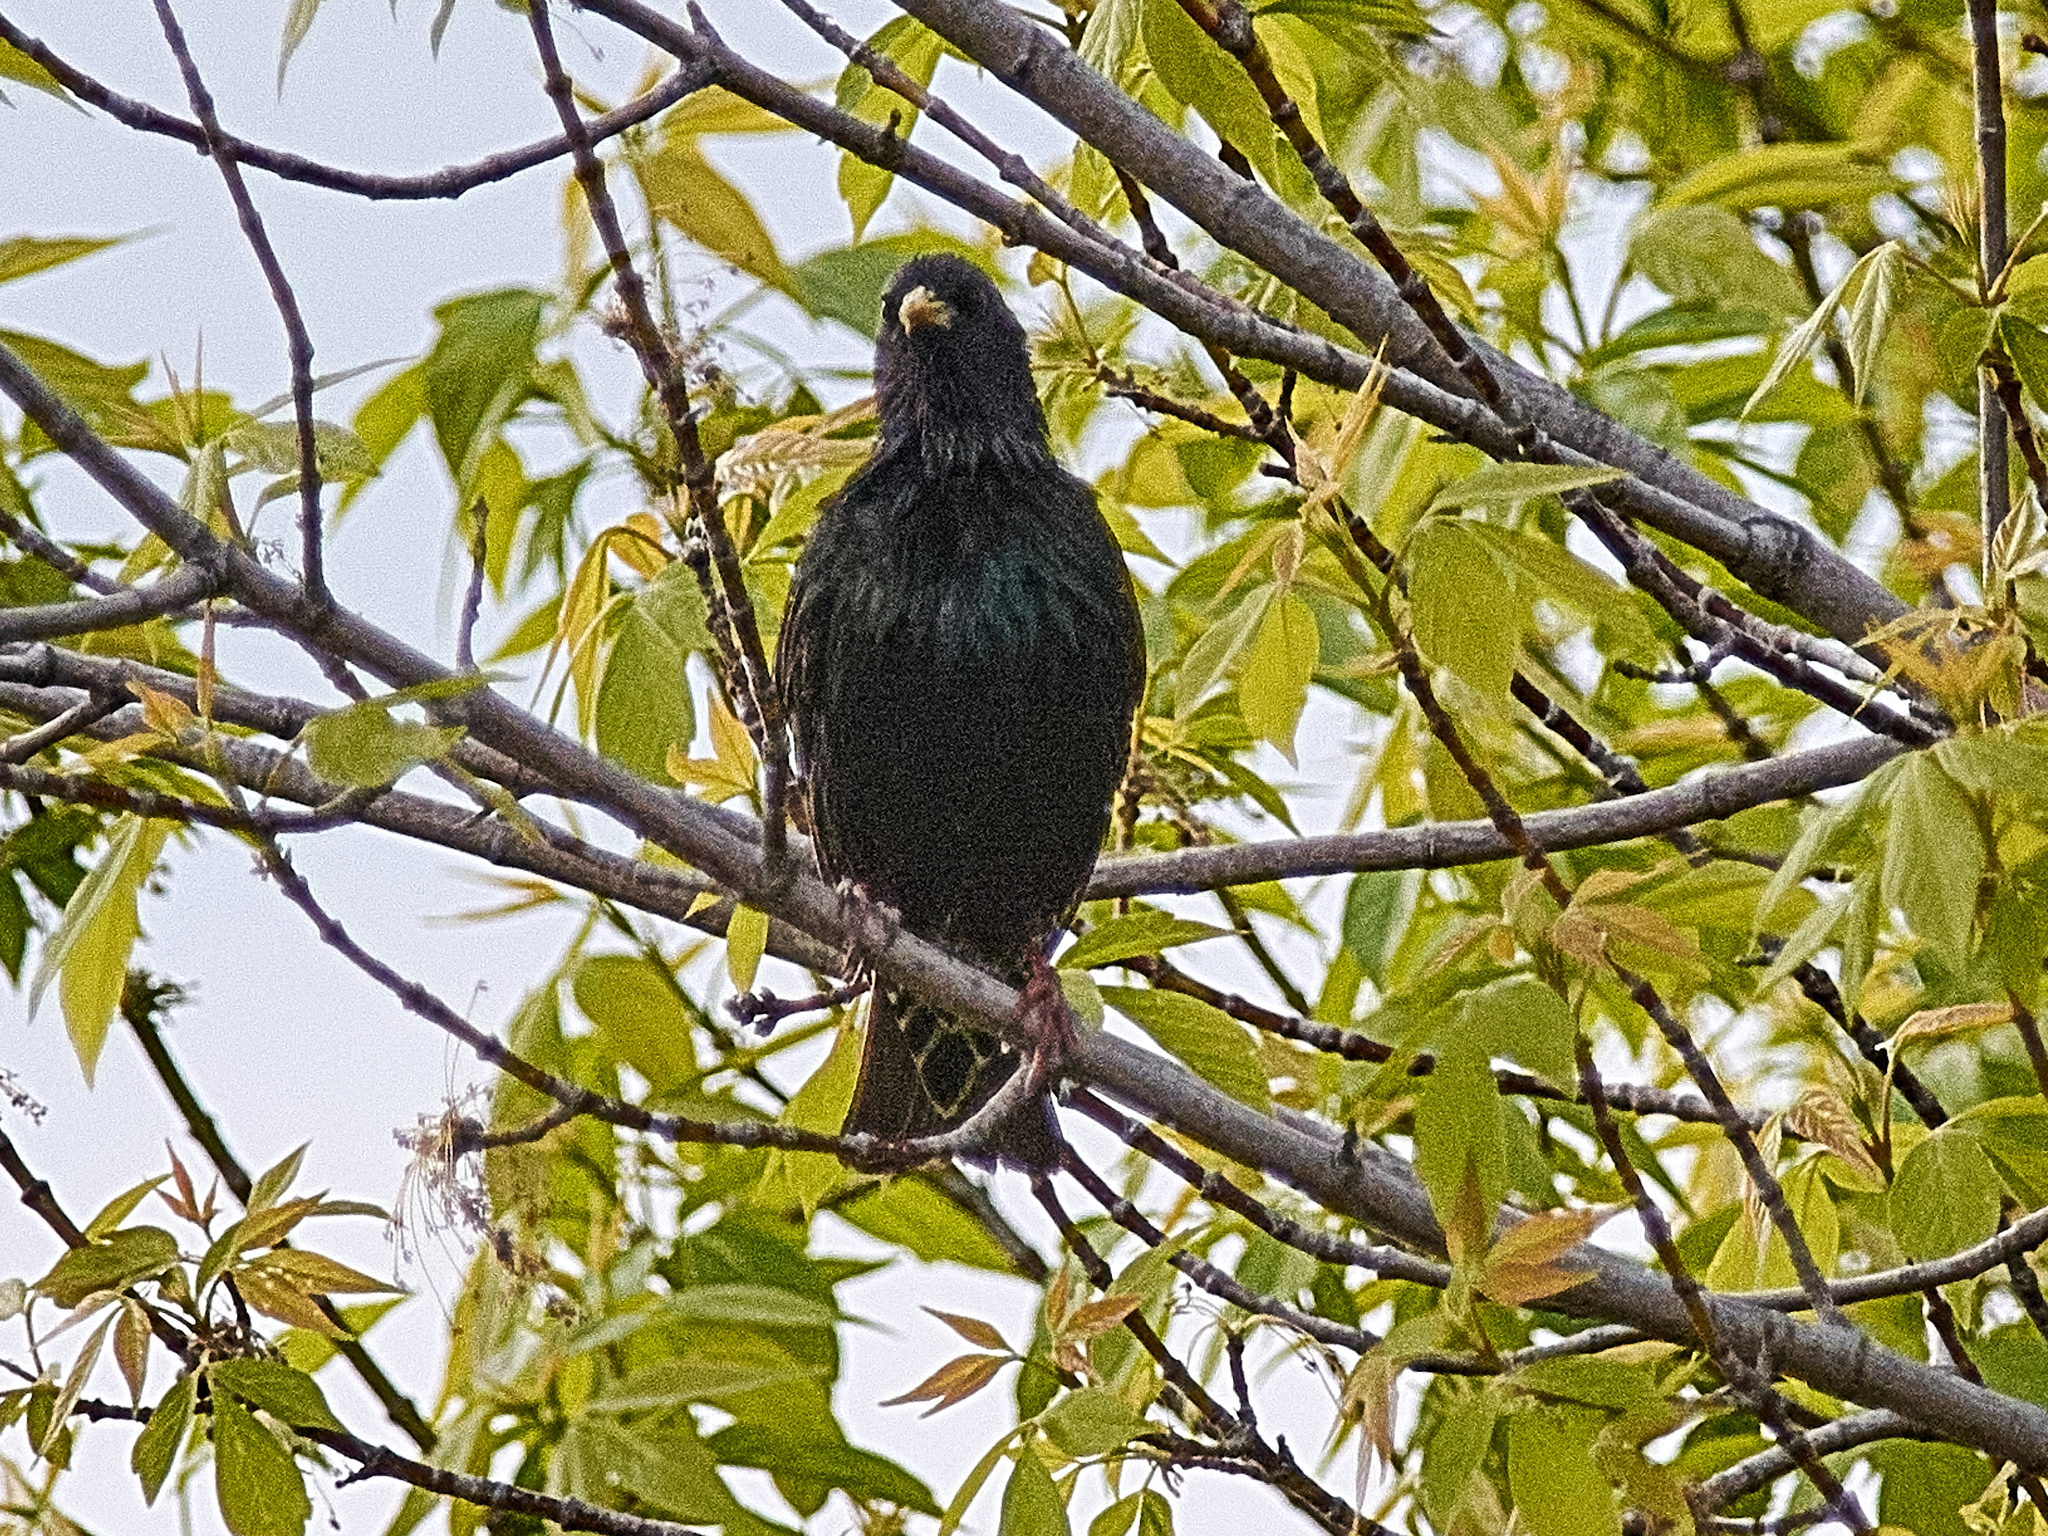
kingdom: Animalia
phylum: Chordata
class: Aves
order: Passeriformes
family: Sturnidae
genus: Sturnus
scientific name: Sturnus vulgaris
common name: Common starling
